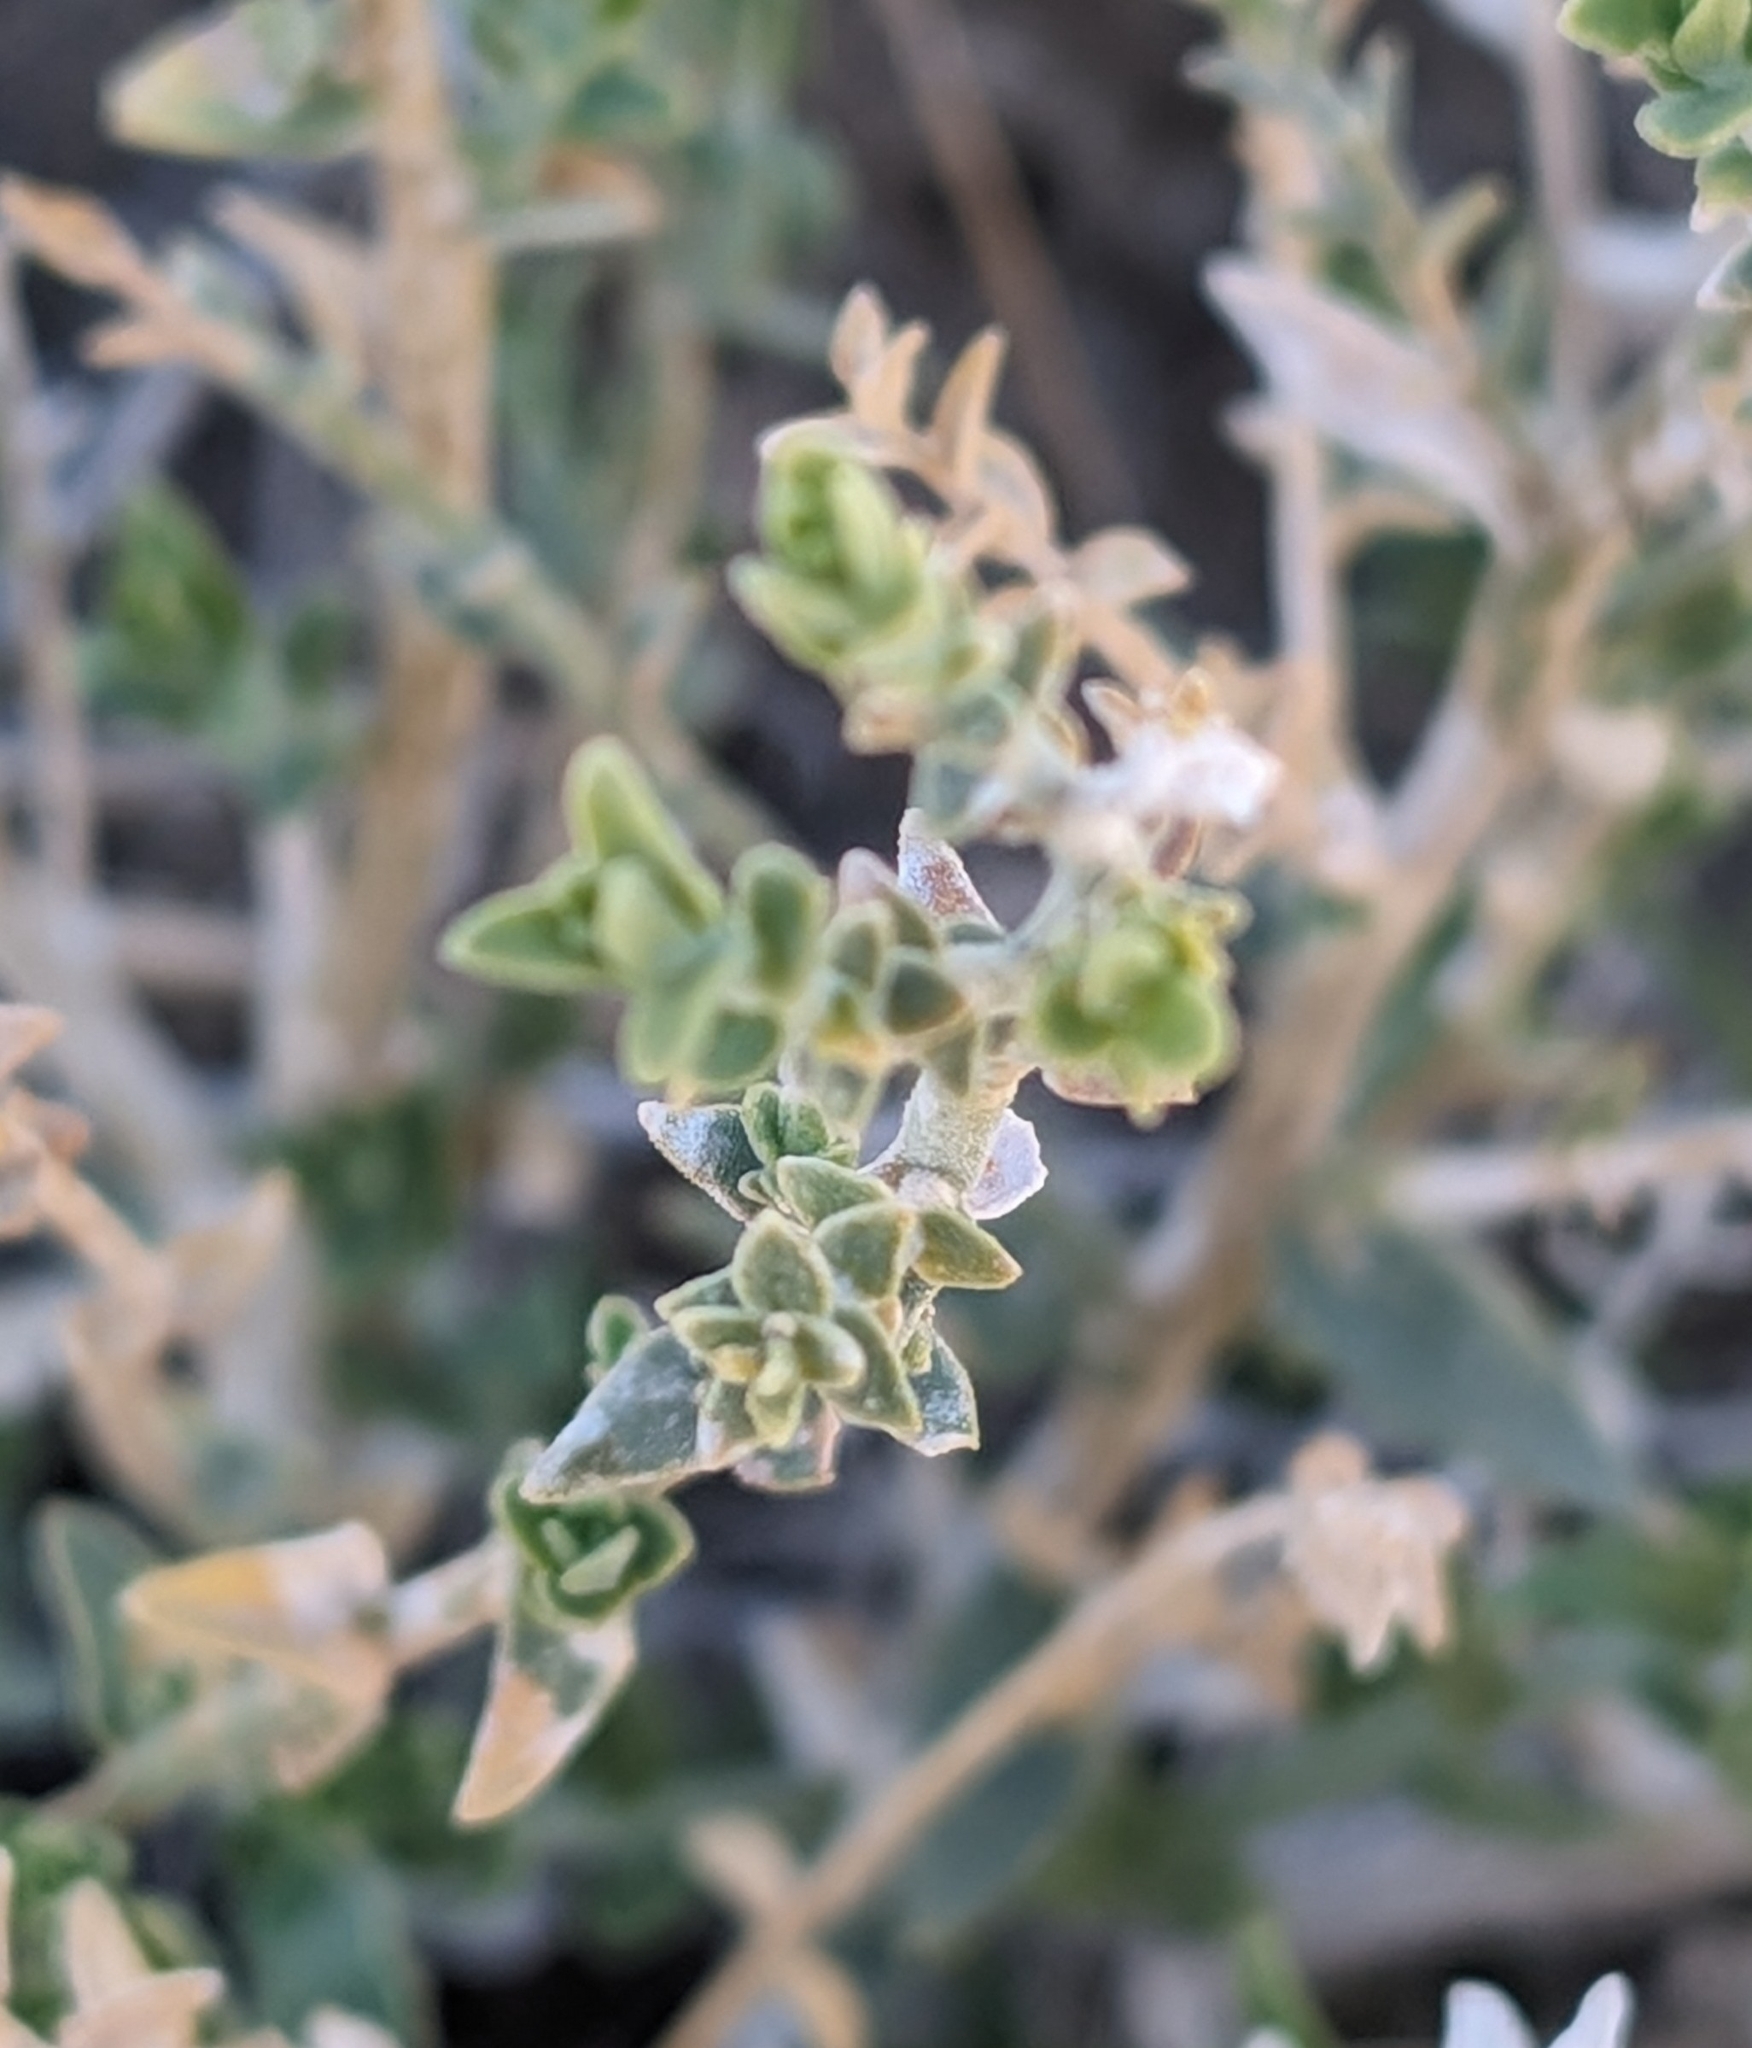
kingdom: Plantae
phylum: Tracheophyta
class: Magnoliopsida
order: Cornales
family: Loasaceae
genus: Petalonyx
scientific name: Petalonyx thurberi
